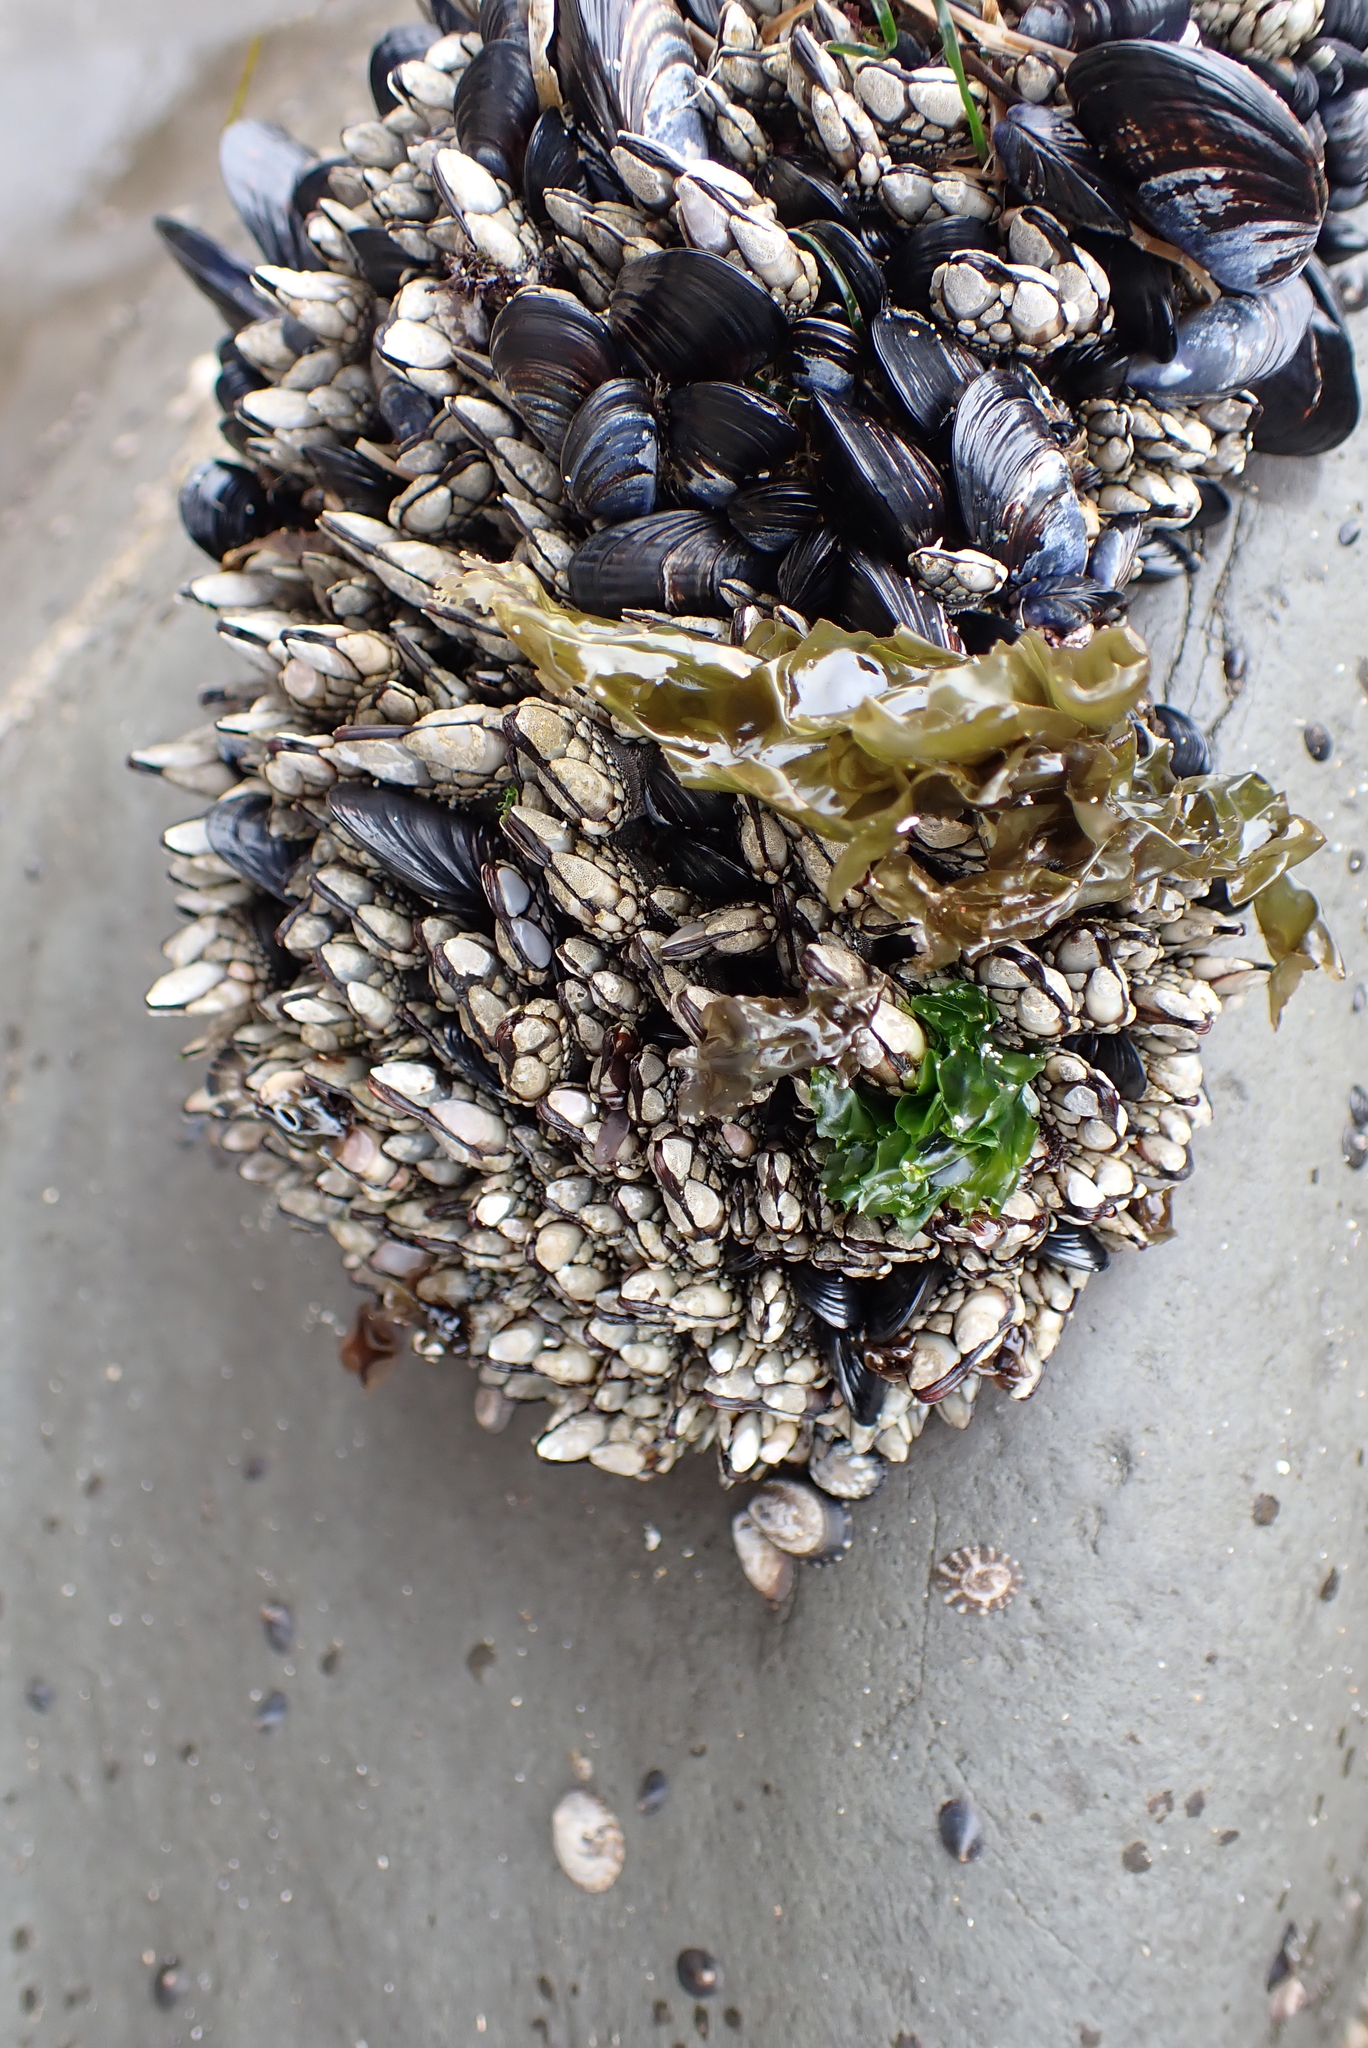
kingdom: Animalia
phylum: Arthropoda
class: Maxillopoda
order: Pedunculata
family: Pollicipedidae
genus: Pollicipes
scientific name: Pollicipes polymerus
